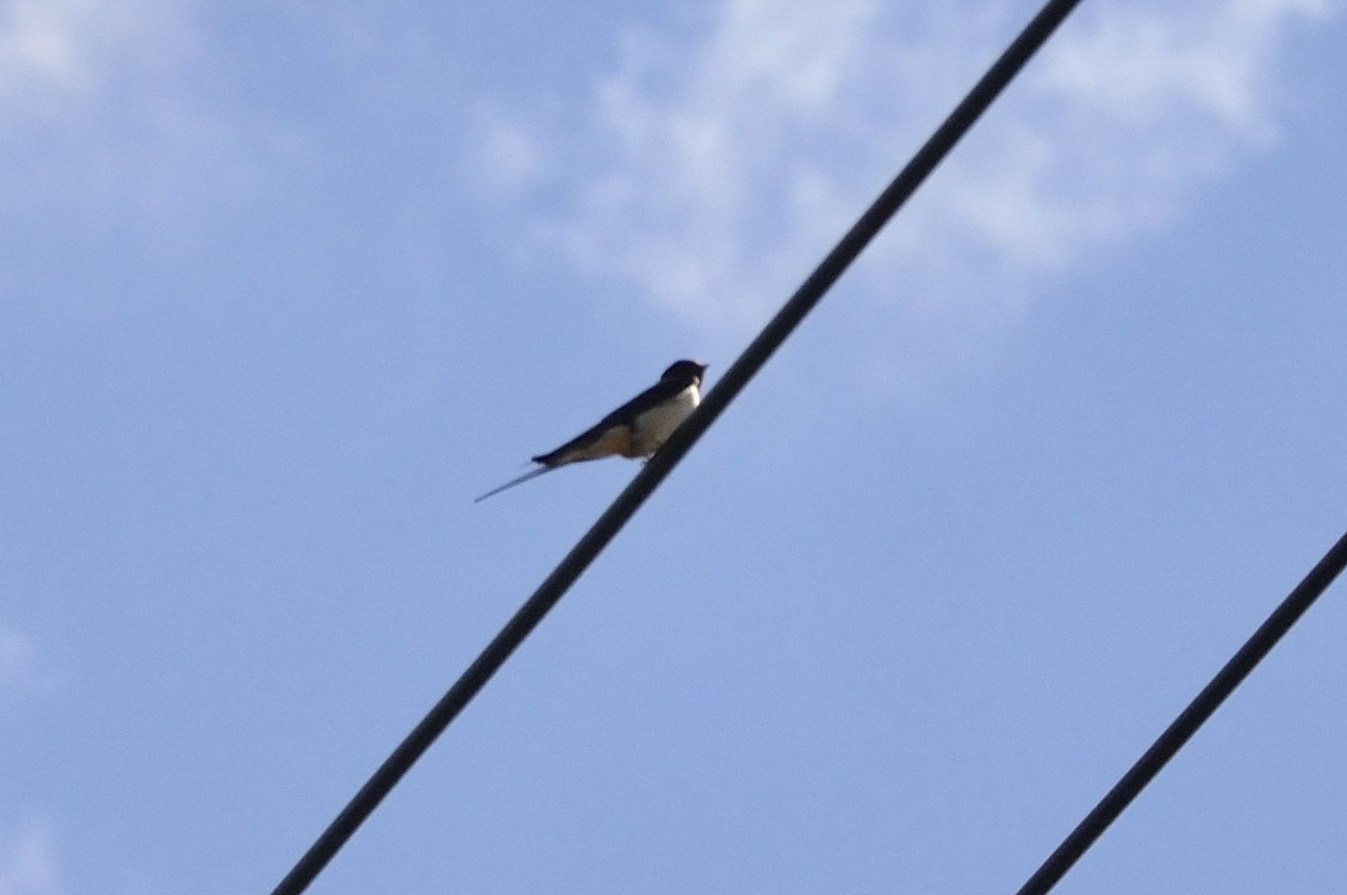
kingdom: Animalia
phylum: Chordata
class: Aves
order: Passeriformes
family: Hirundinidae
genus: Hirundo
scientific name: Hirundo rustica
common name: Barn swallow
